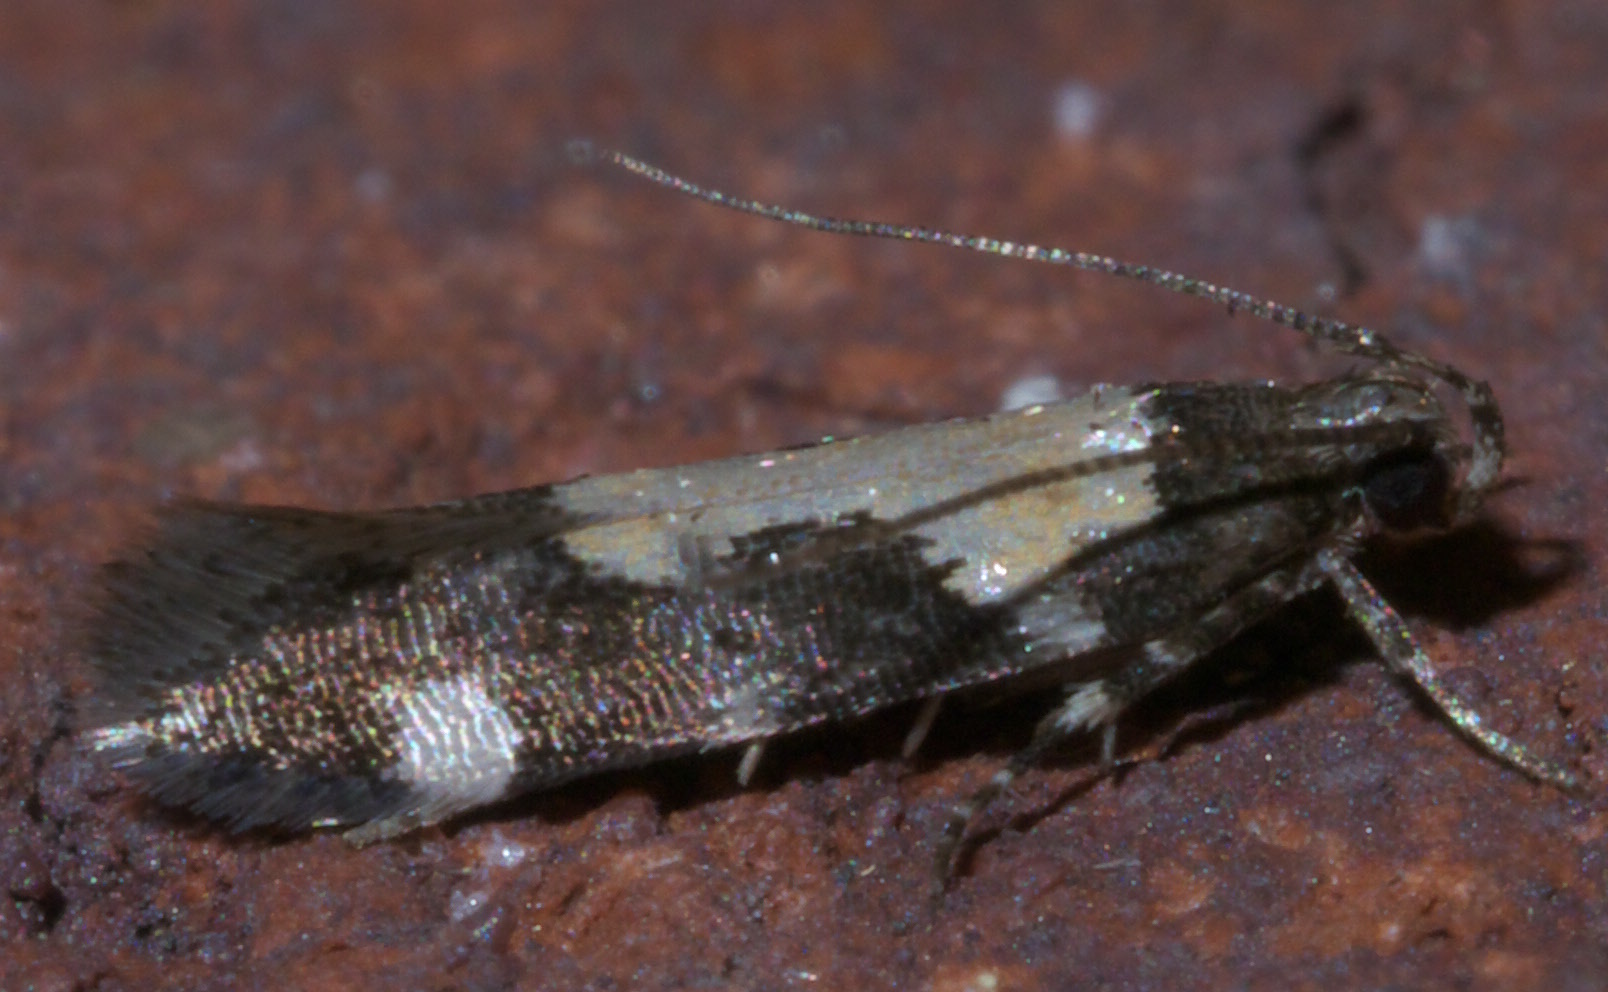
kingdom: Animalia
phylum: Arthropoda
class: Insecta
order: Lepidoptera
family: Gelechiidae
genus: Stegasta
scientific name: Stegasta bosqueella
